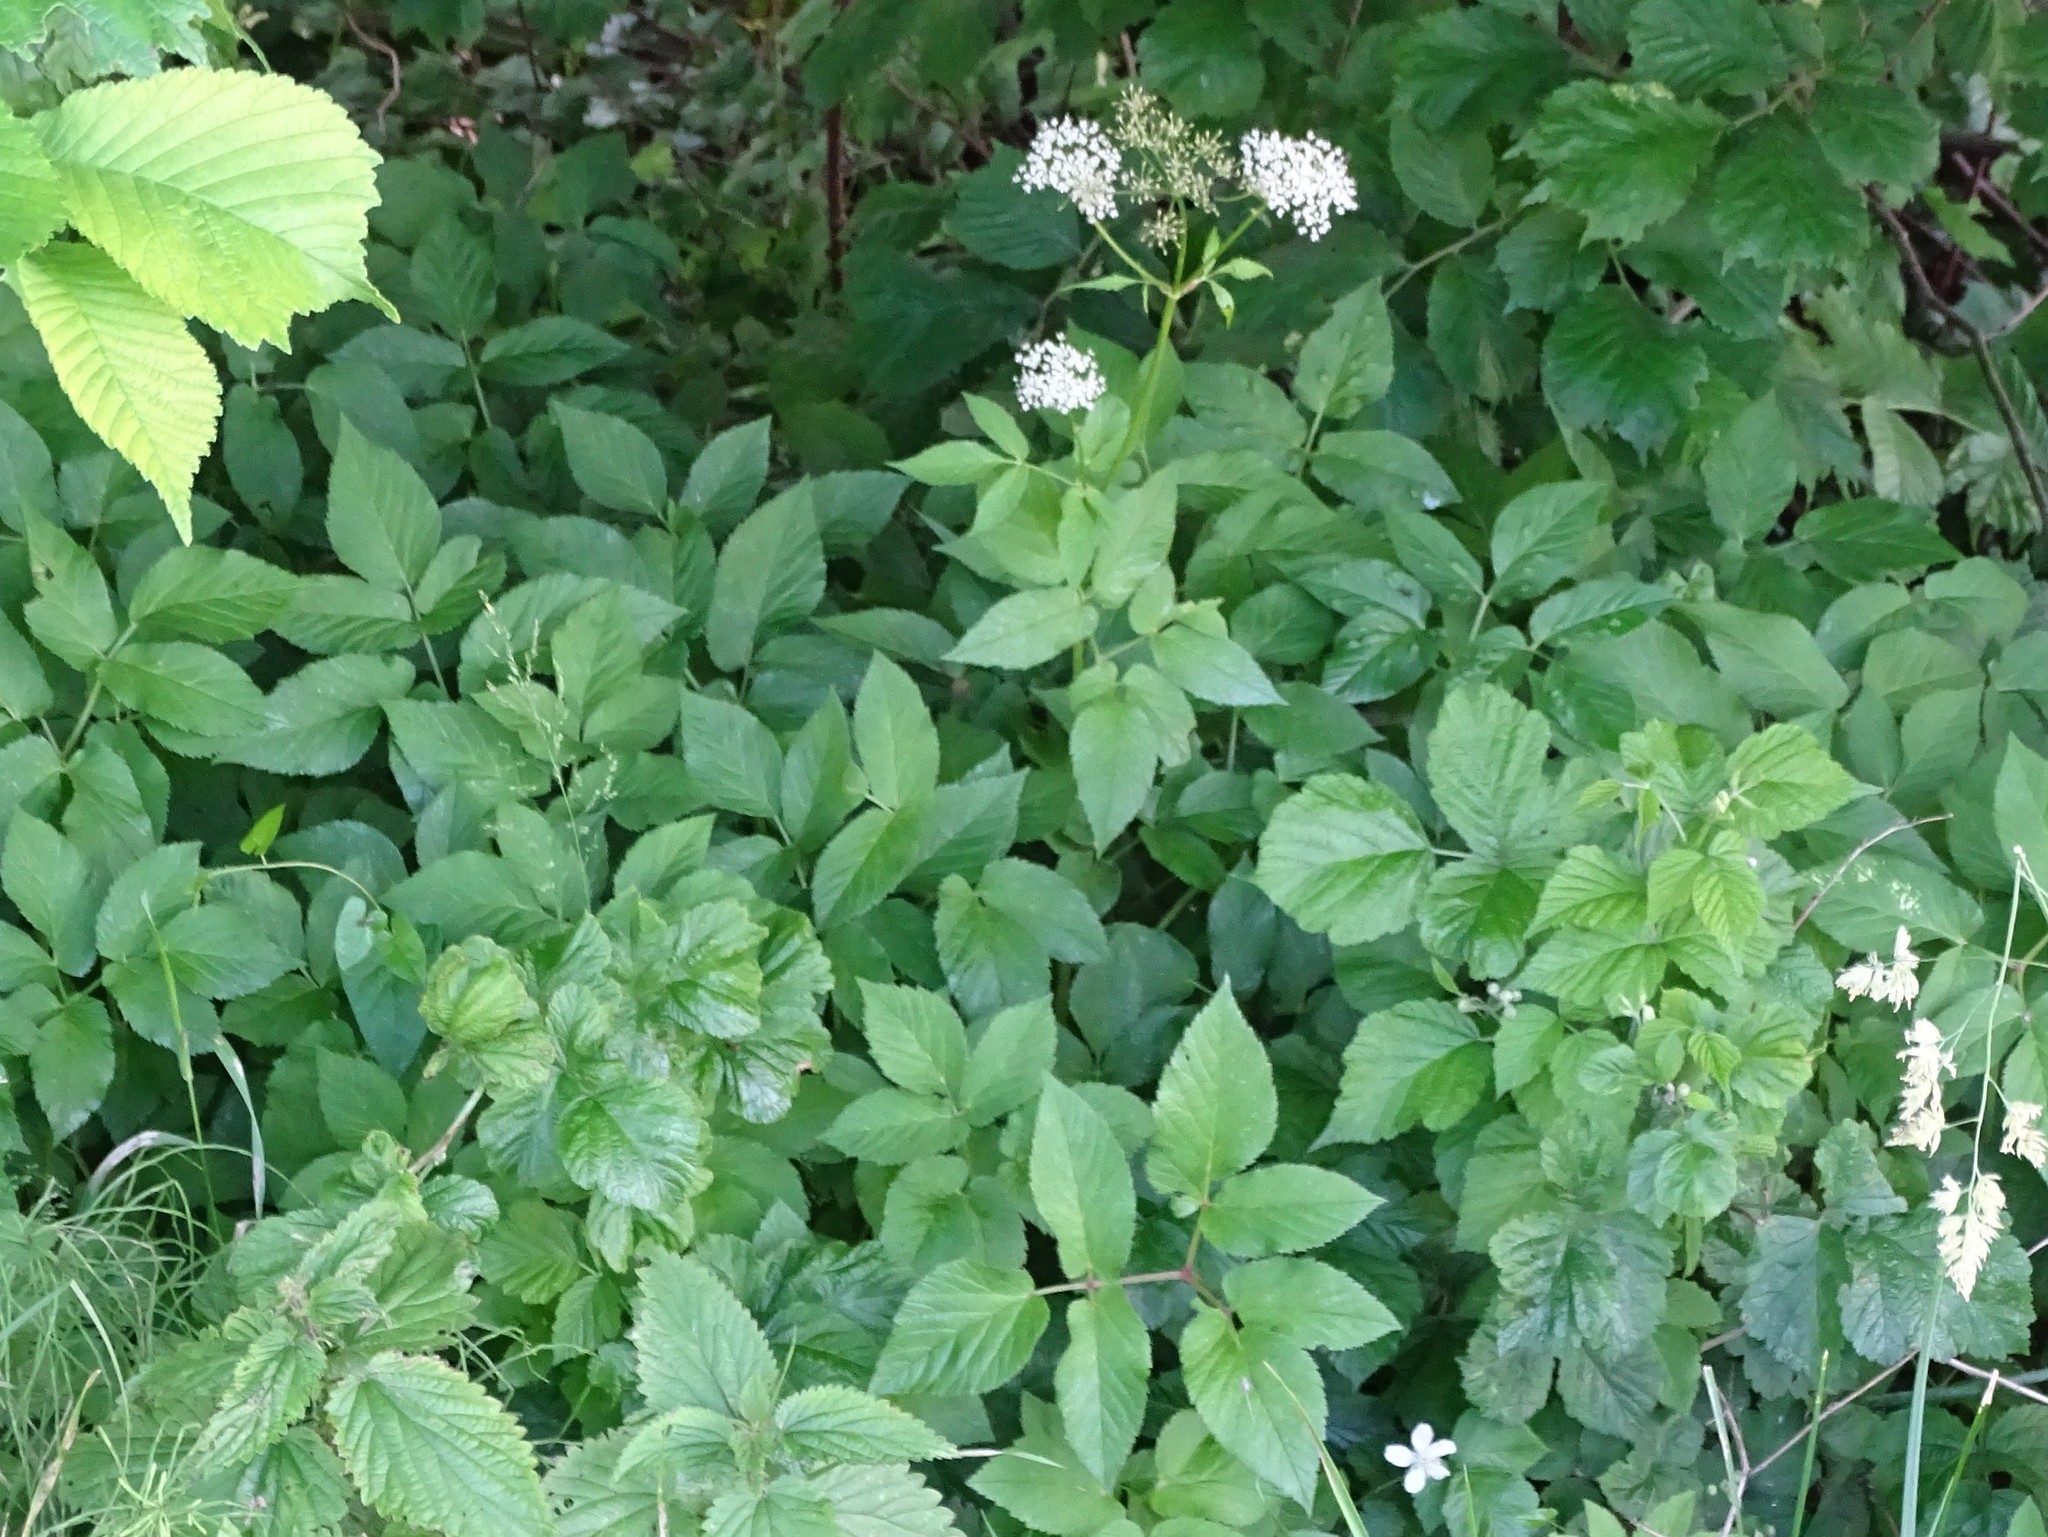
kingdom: Plantae
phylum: Tracheophyta
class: Magnoliopsida
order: Apiales
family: Apiaceae
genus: Aegopodium
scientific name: Aegopodium podagraria
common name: Ground-elder
